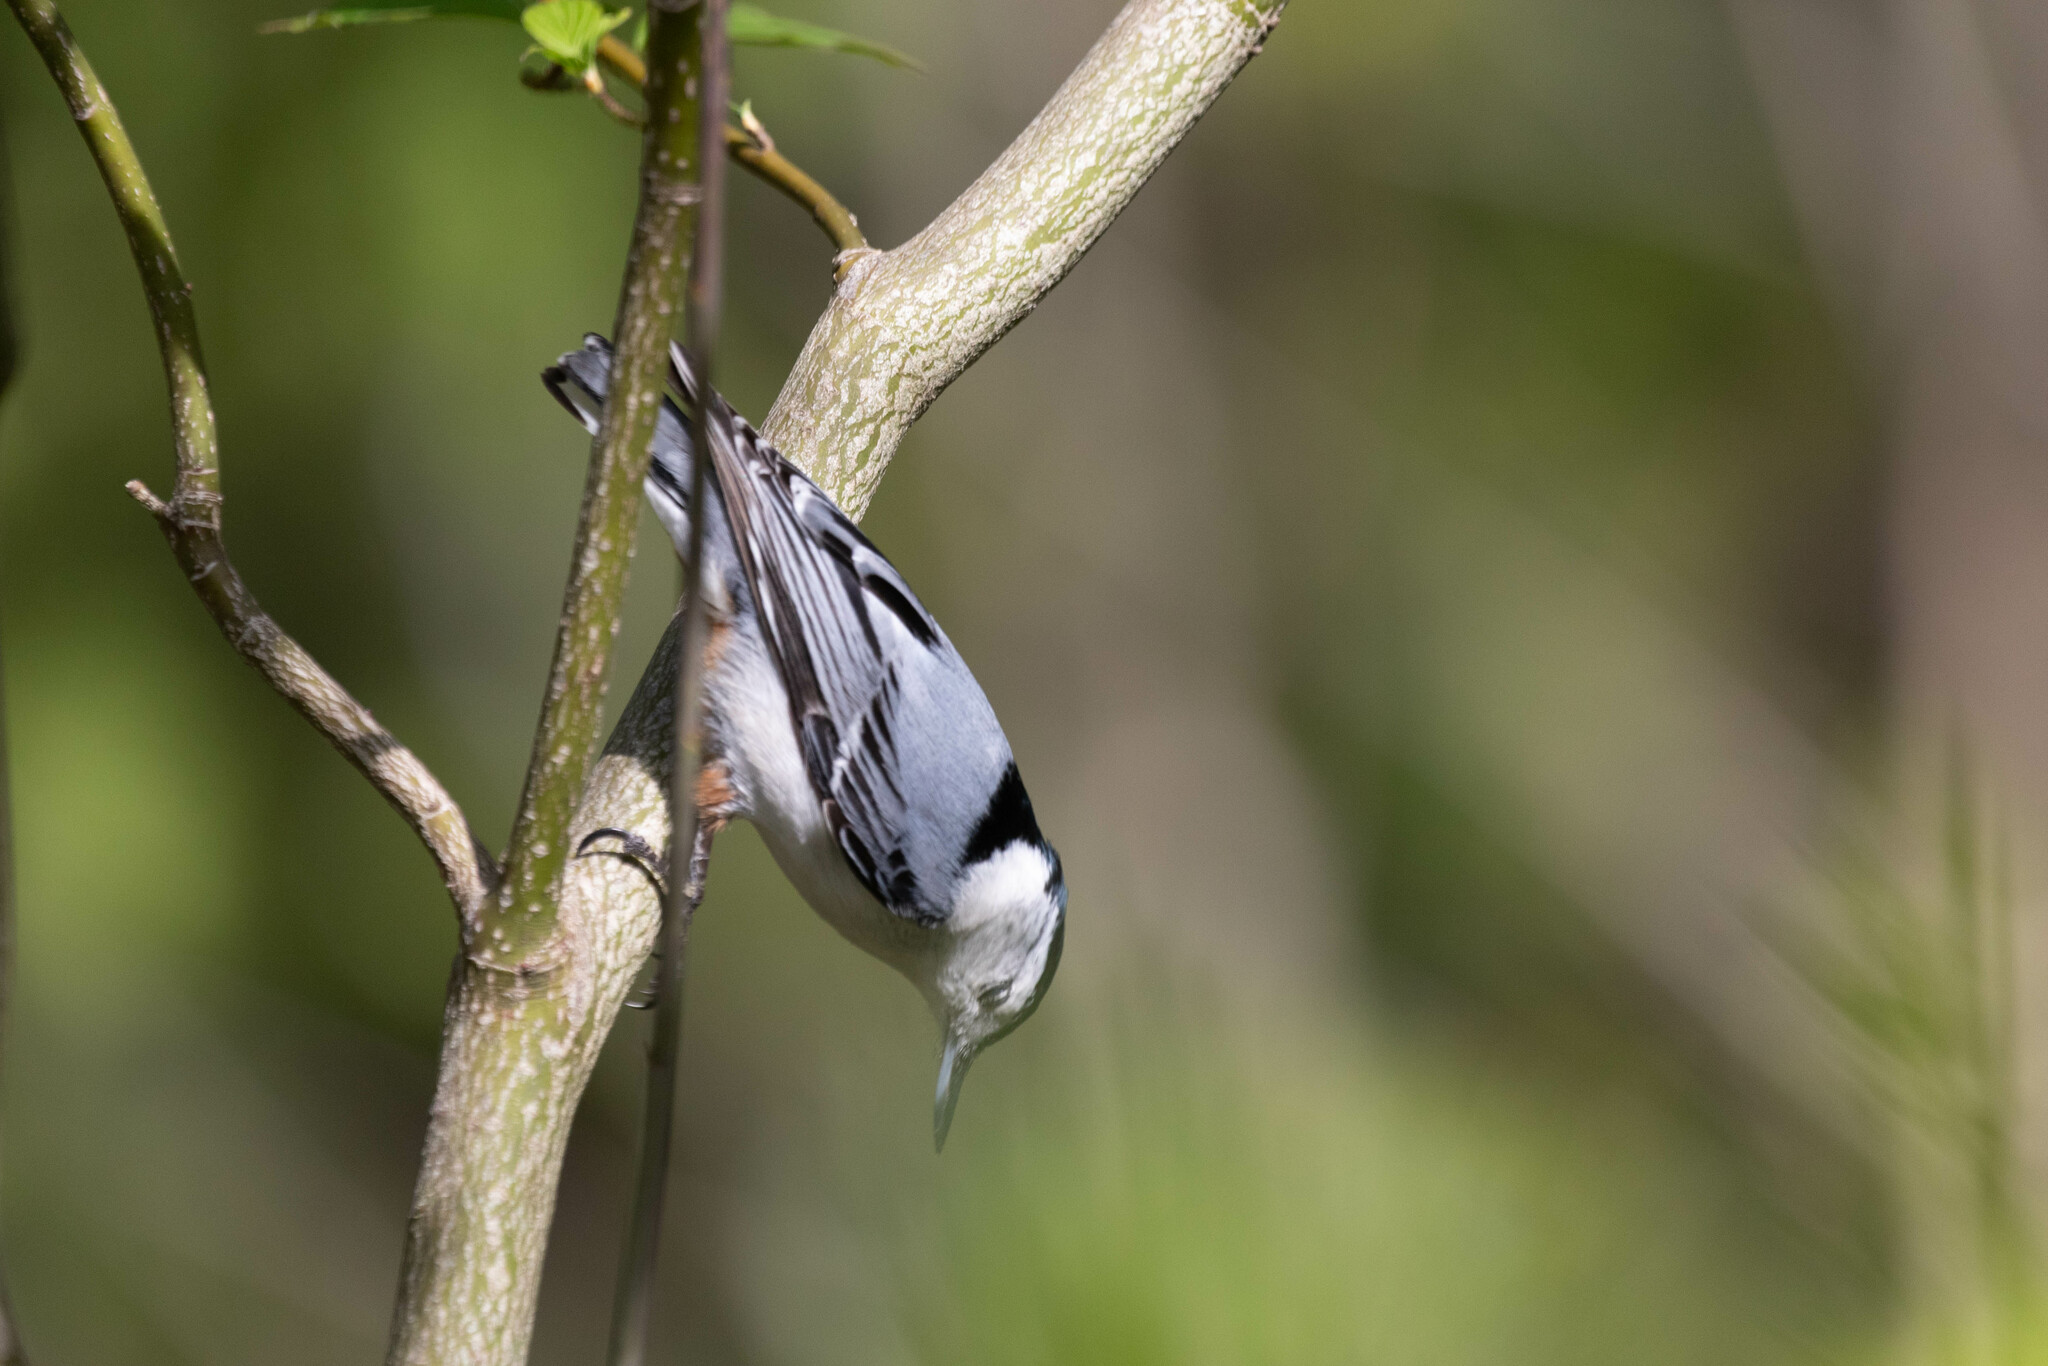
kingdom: Animalia
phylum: Chordata
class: Aves
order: Passeriformes
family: Sittidae
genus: Sitta
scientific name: Sitta carolinensis
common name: White-breasted nuthatch
